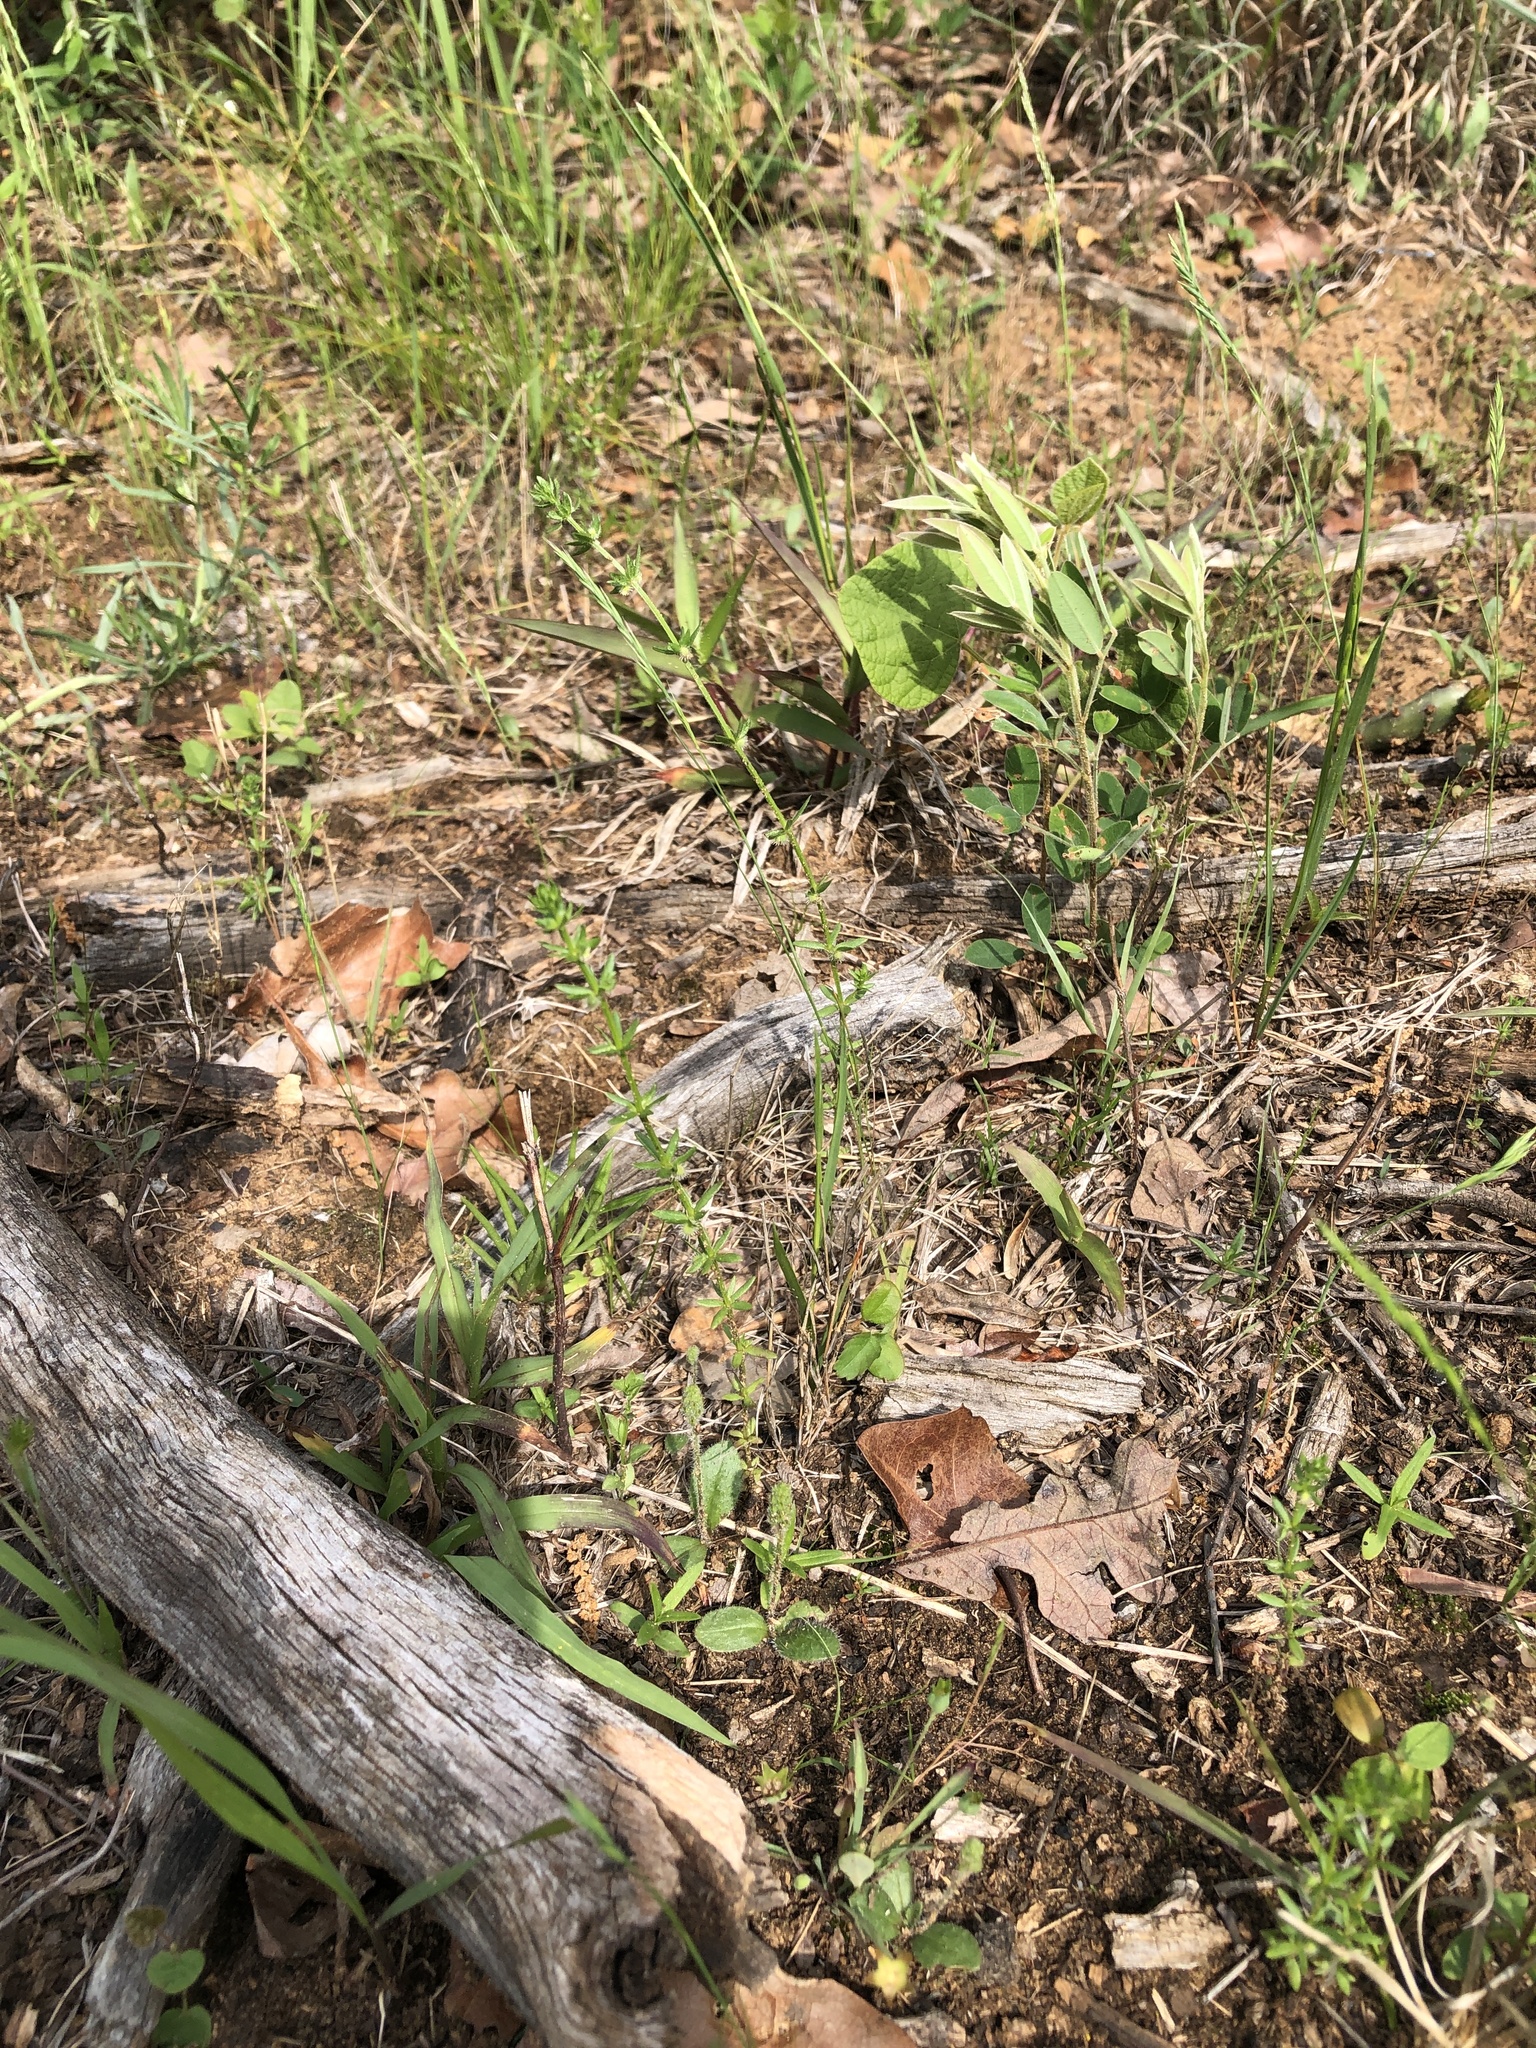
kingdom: Plantae
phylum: Tracheophyta
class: Magnoliopsida
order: Gentianales
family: Rubiaceae
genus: Galium
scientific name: Galium virgatum
